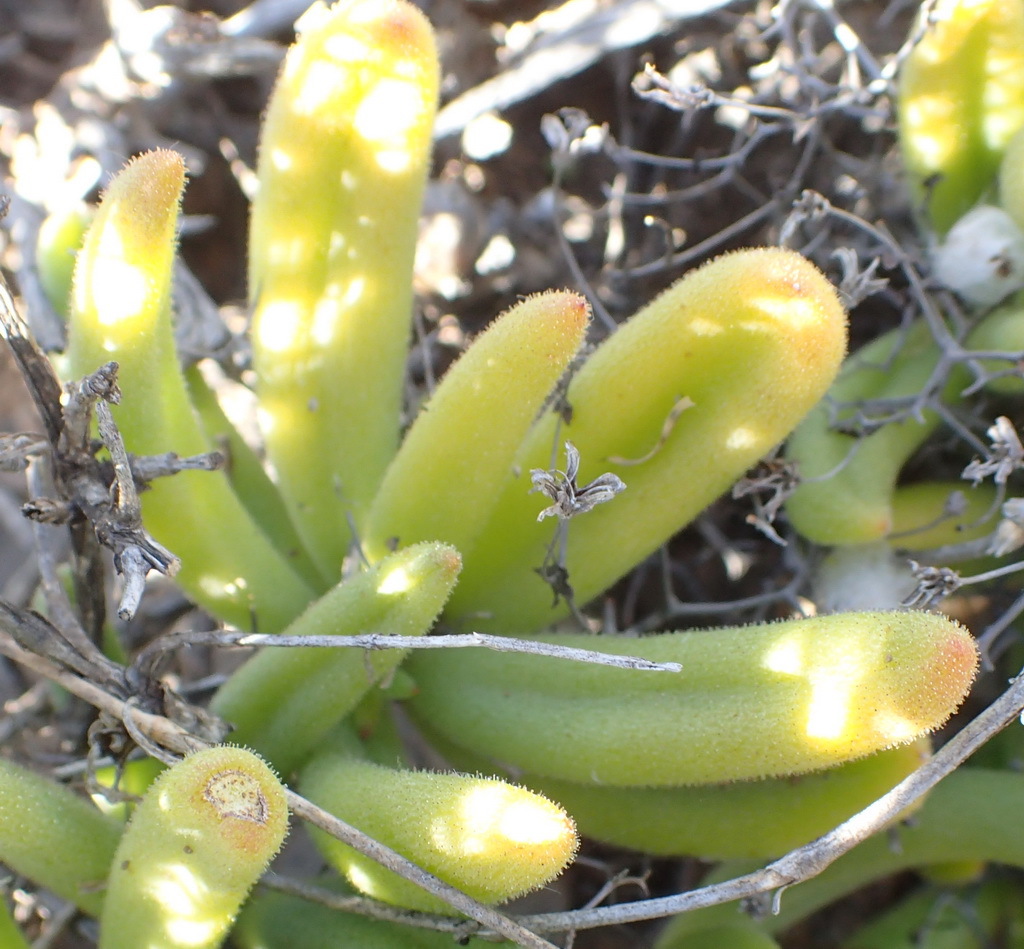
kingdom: Plantae
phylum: Tracheophyta
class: Magnoliopsida
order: Saxifragales
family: Crassulaceae
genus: Tylecodon
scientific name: Tylecodon reticulatus
